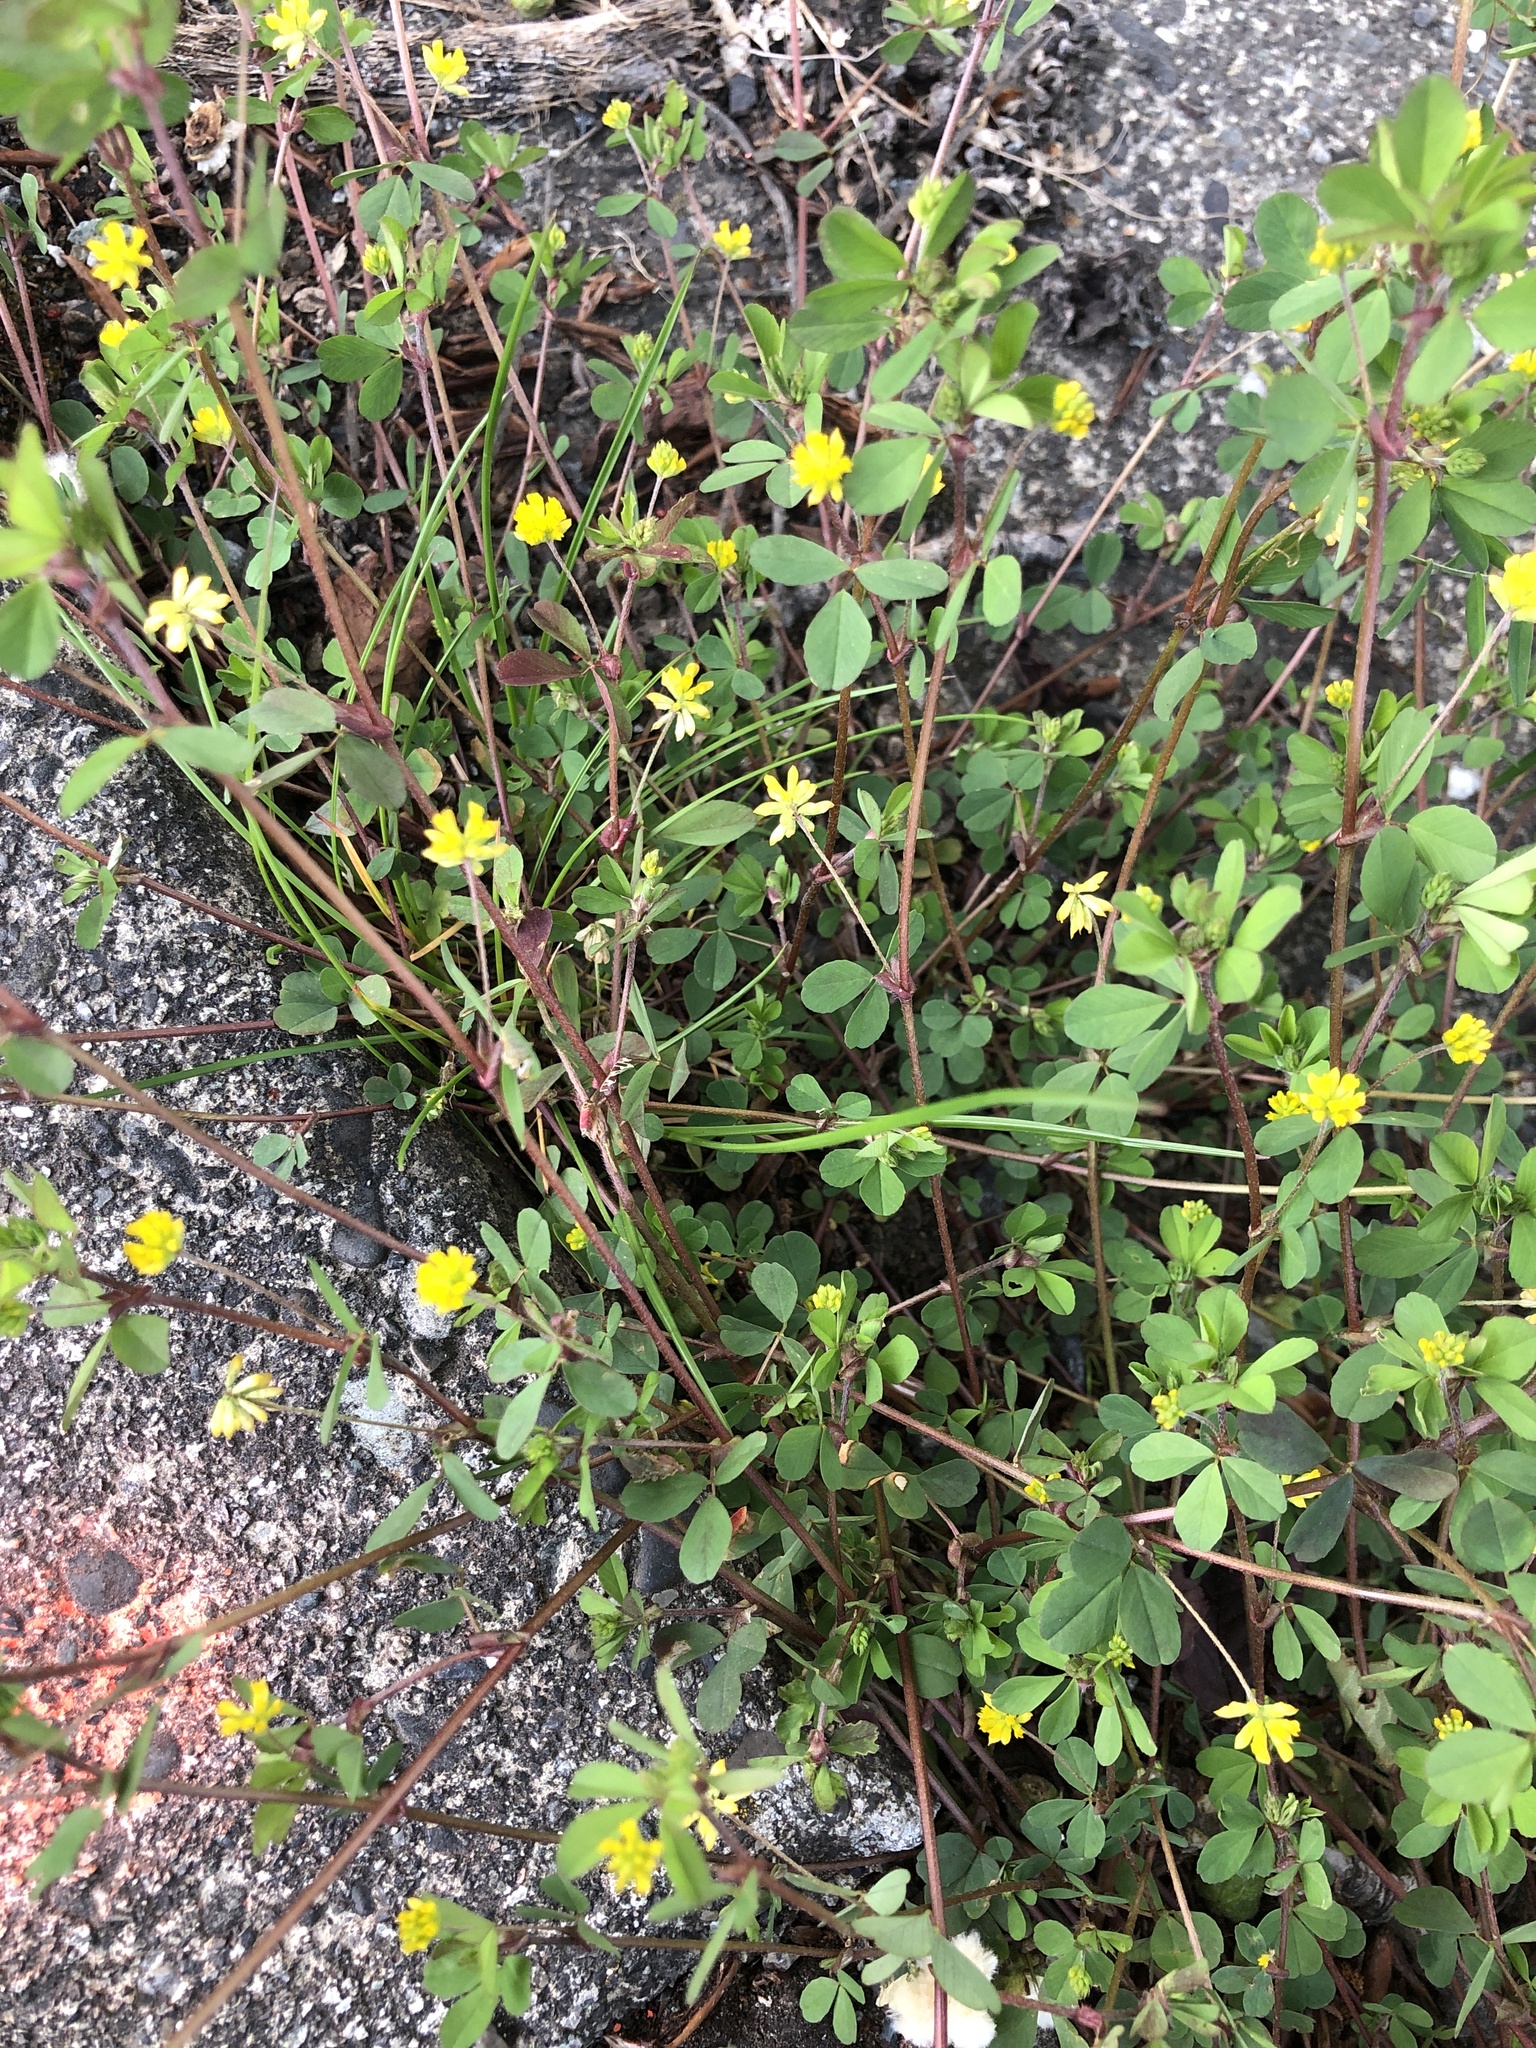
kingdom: Plantae
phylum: Tracheophyta
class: Magnoliopsida
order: Fabales
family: Fabaceae
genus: Trifolium
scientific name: Trifolium dubium
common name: Suckling clover
